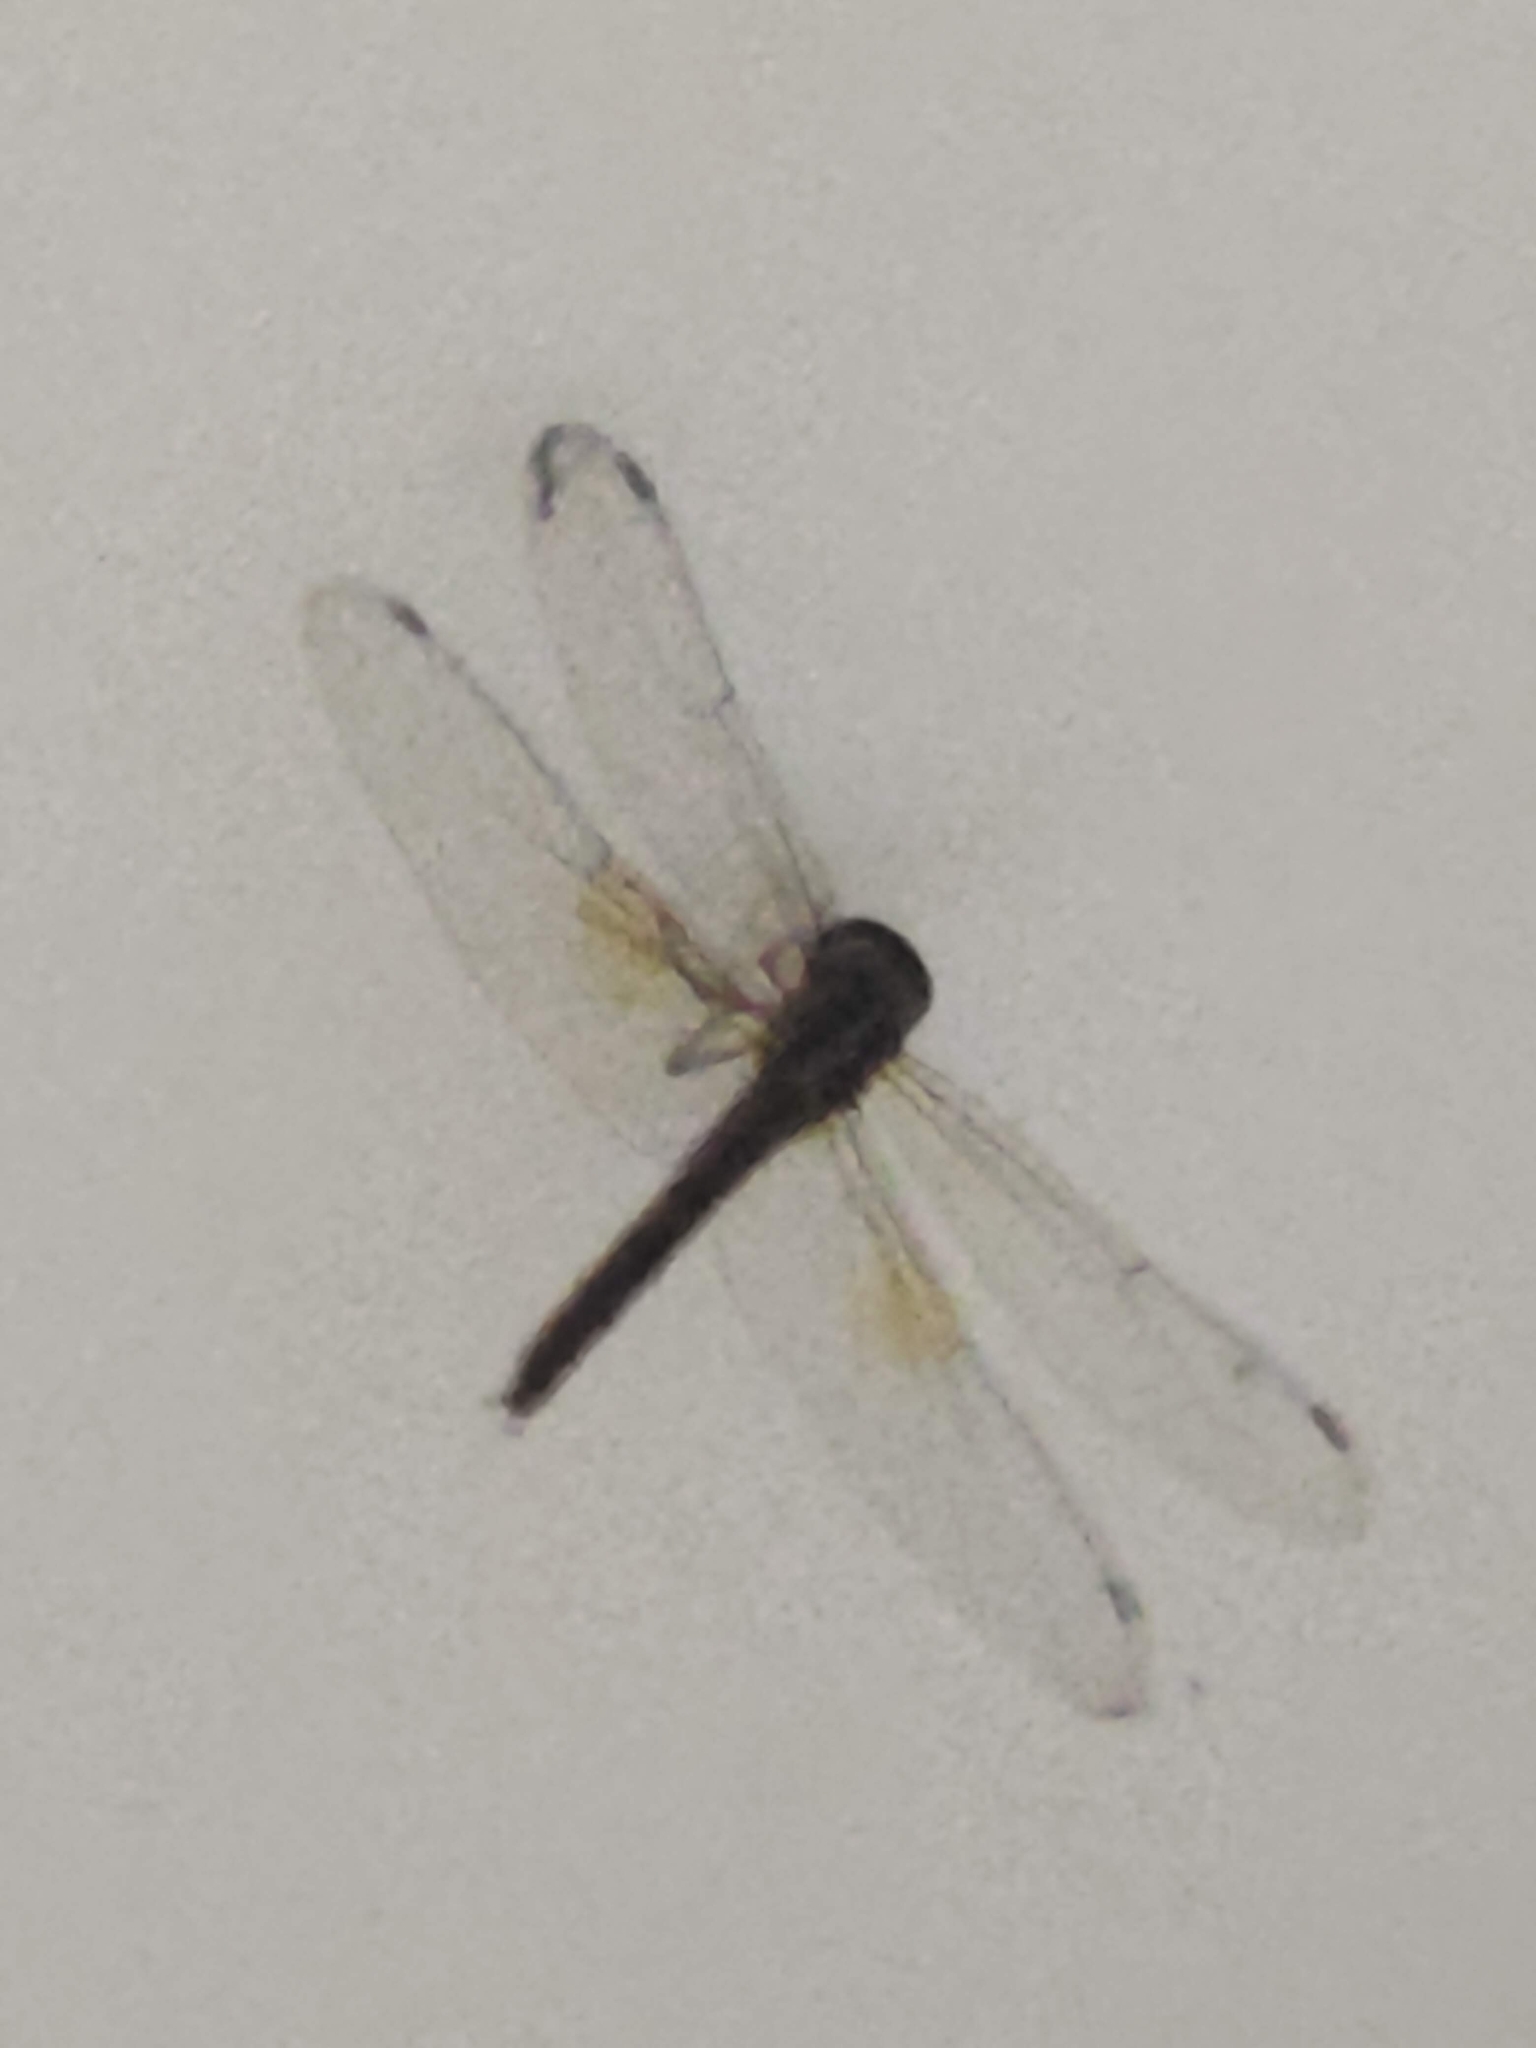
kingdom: Animalia
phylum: Arthropoda
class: Insecta
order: Odonata
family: Libellulidae
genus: Tholymis
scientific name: Tholymis tillarga
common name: Coral-tailed cloud wing
